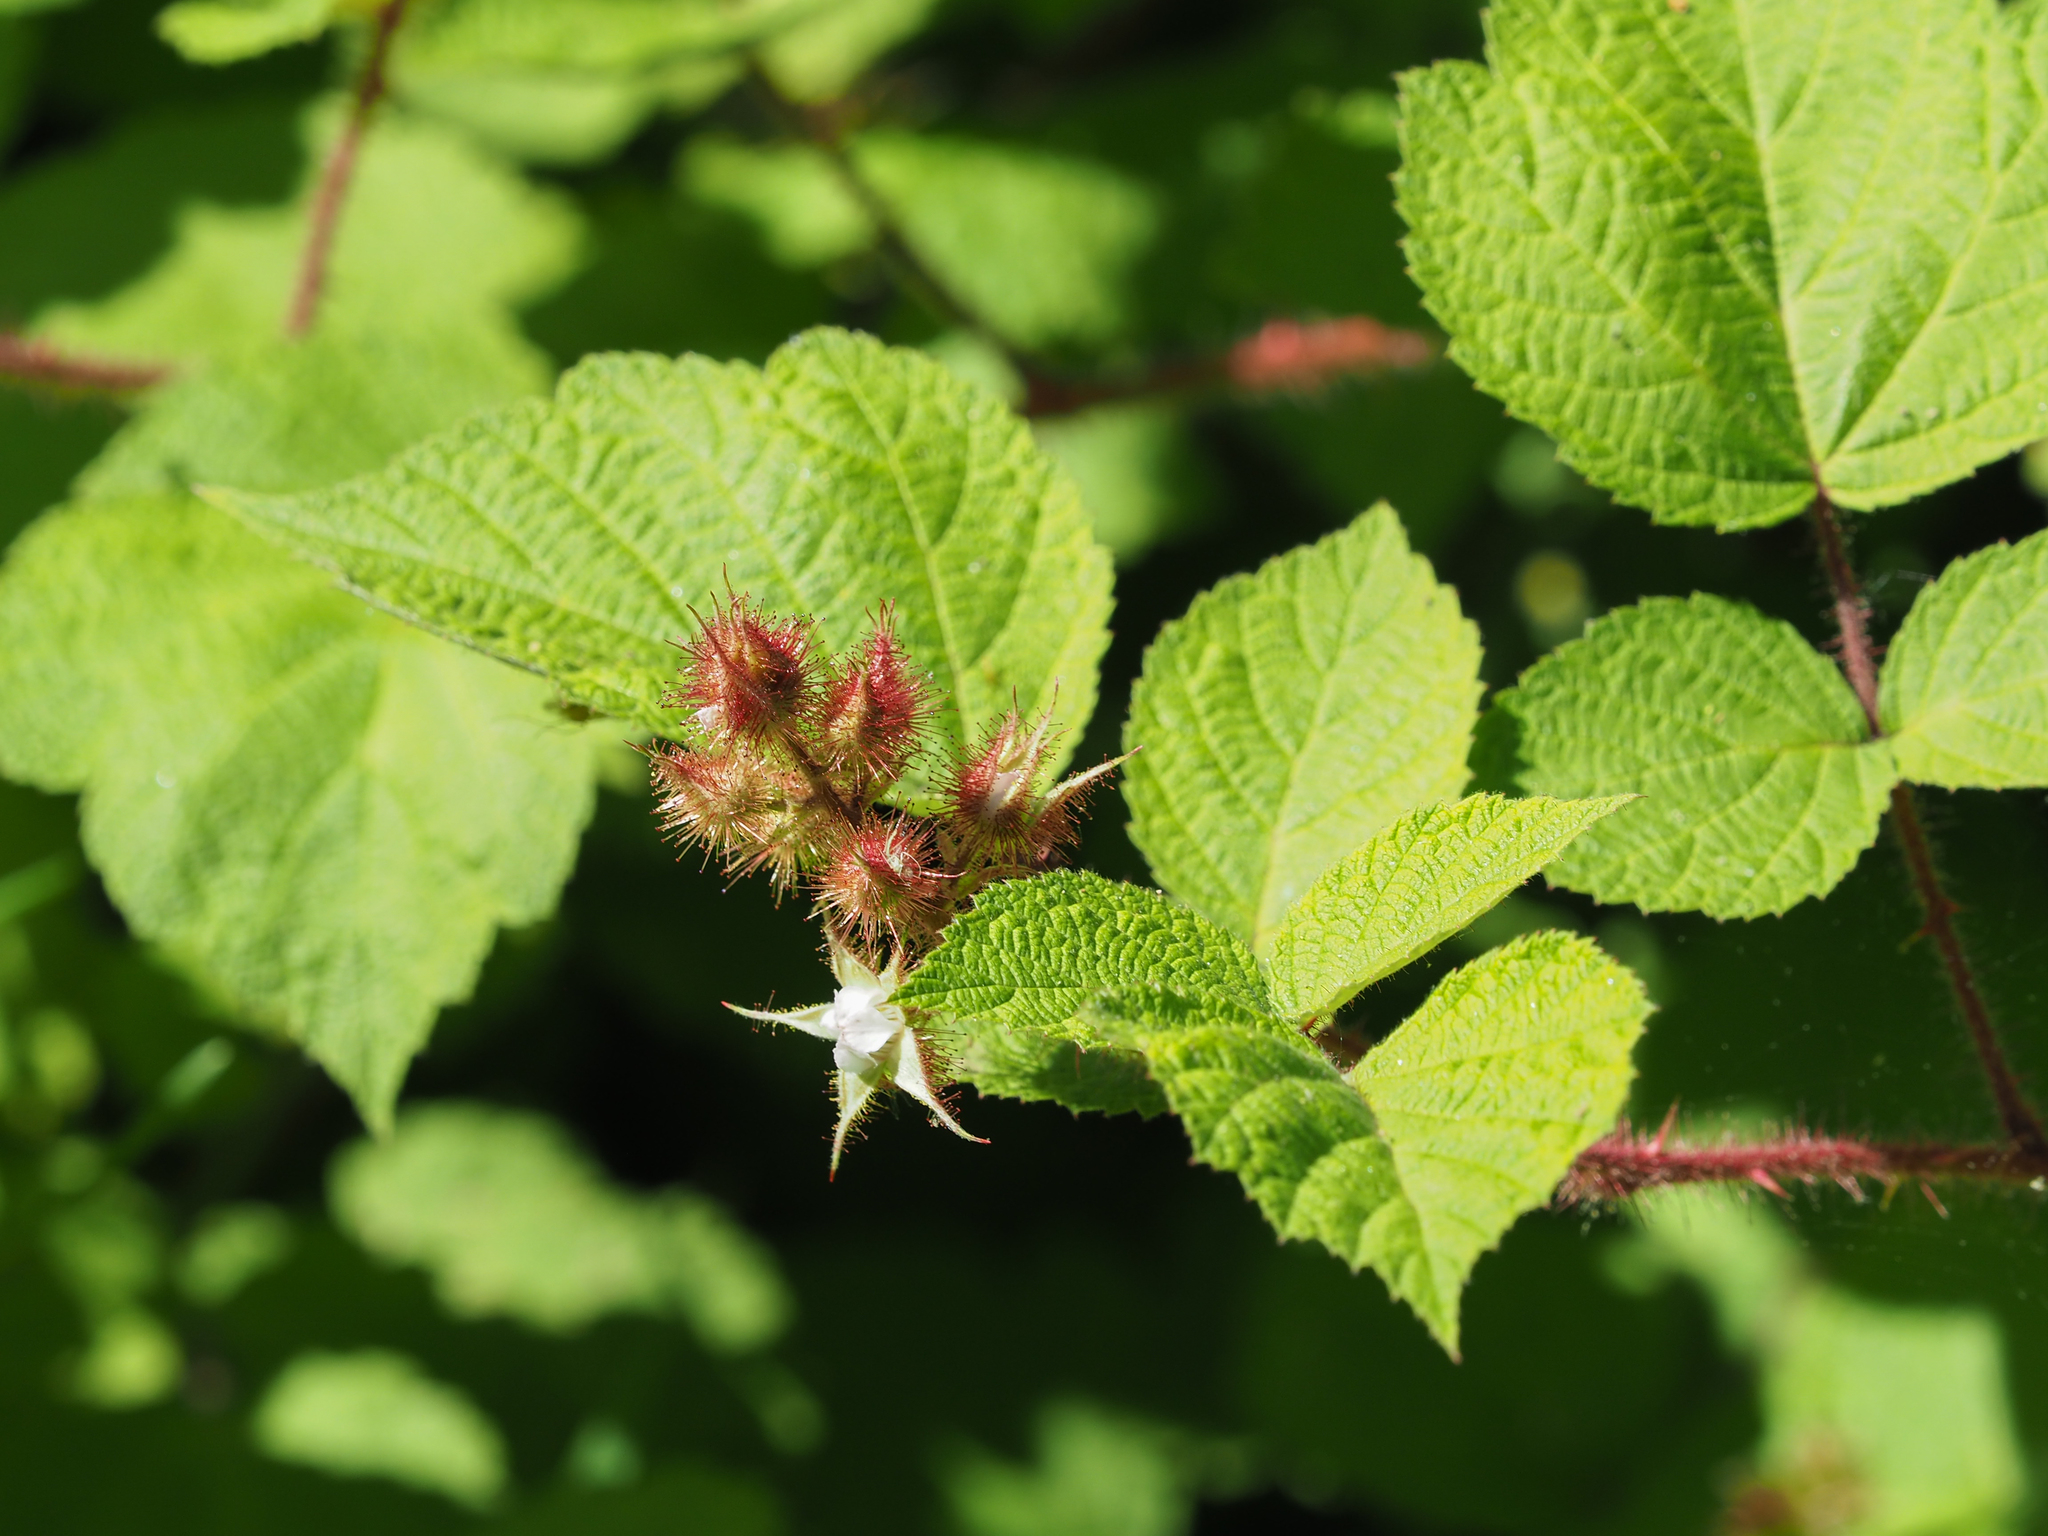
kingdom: Plantae
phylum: Tracheophyta
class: Magnoliopsida
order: Rosales
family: Rosaceae
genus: Rubus
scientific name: Rubus phoenicolasius
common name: Japanese wineberry
